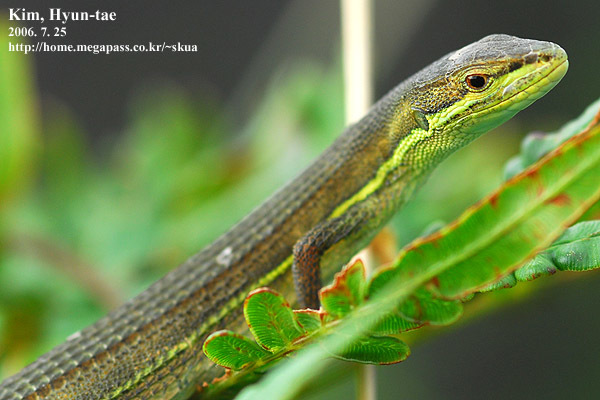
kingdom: Animalia
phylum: Chordata
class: Squamata
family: Lacertidae
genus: Takydromus
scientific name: Takydromus wolteri
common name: Mountain grass lizard
